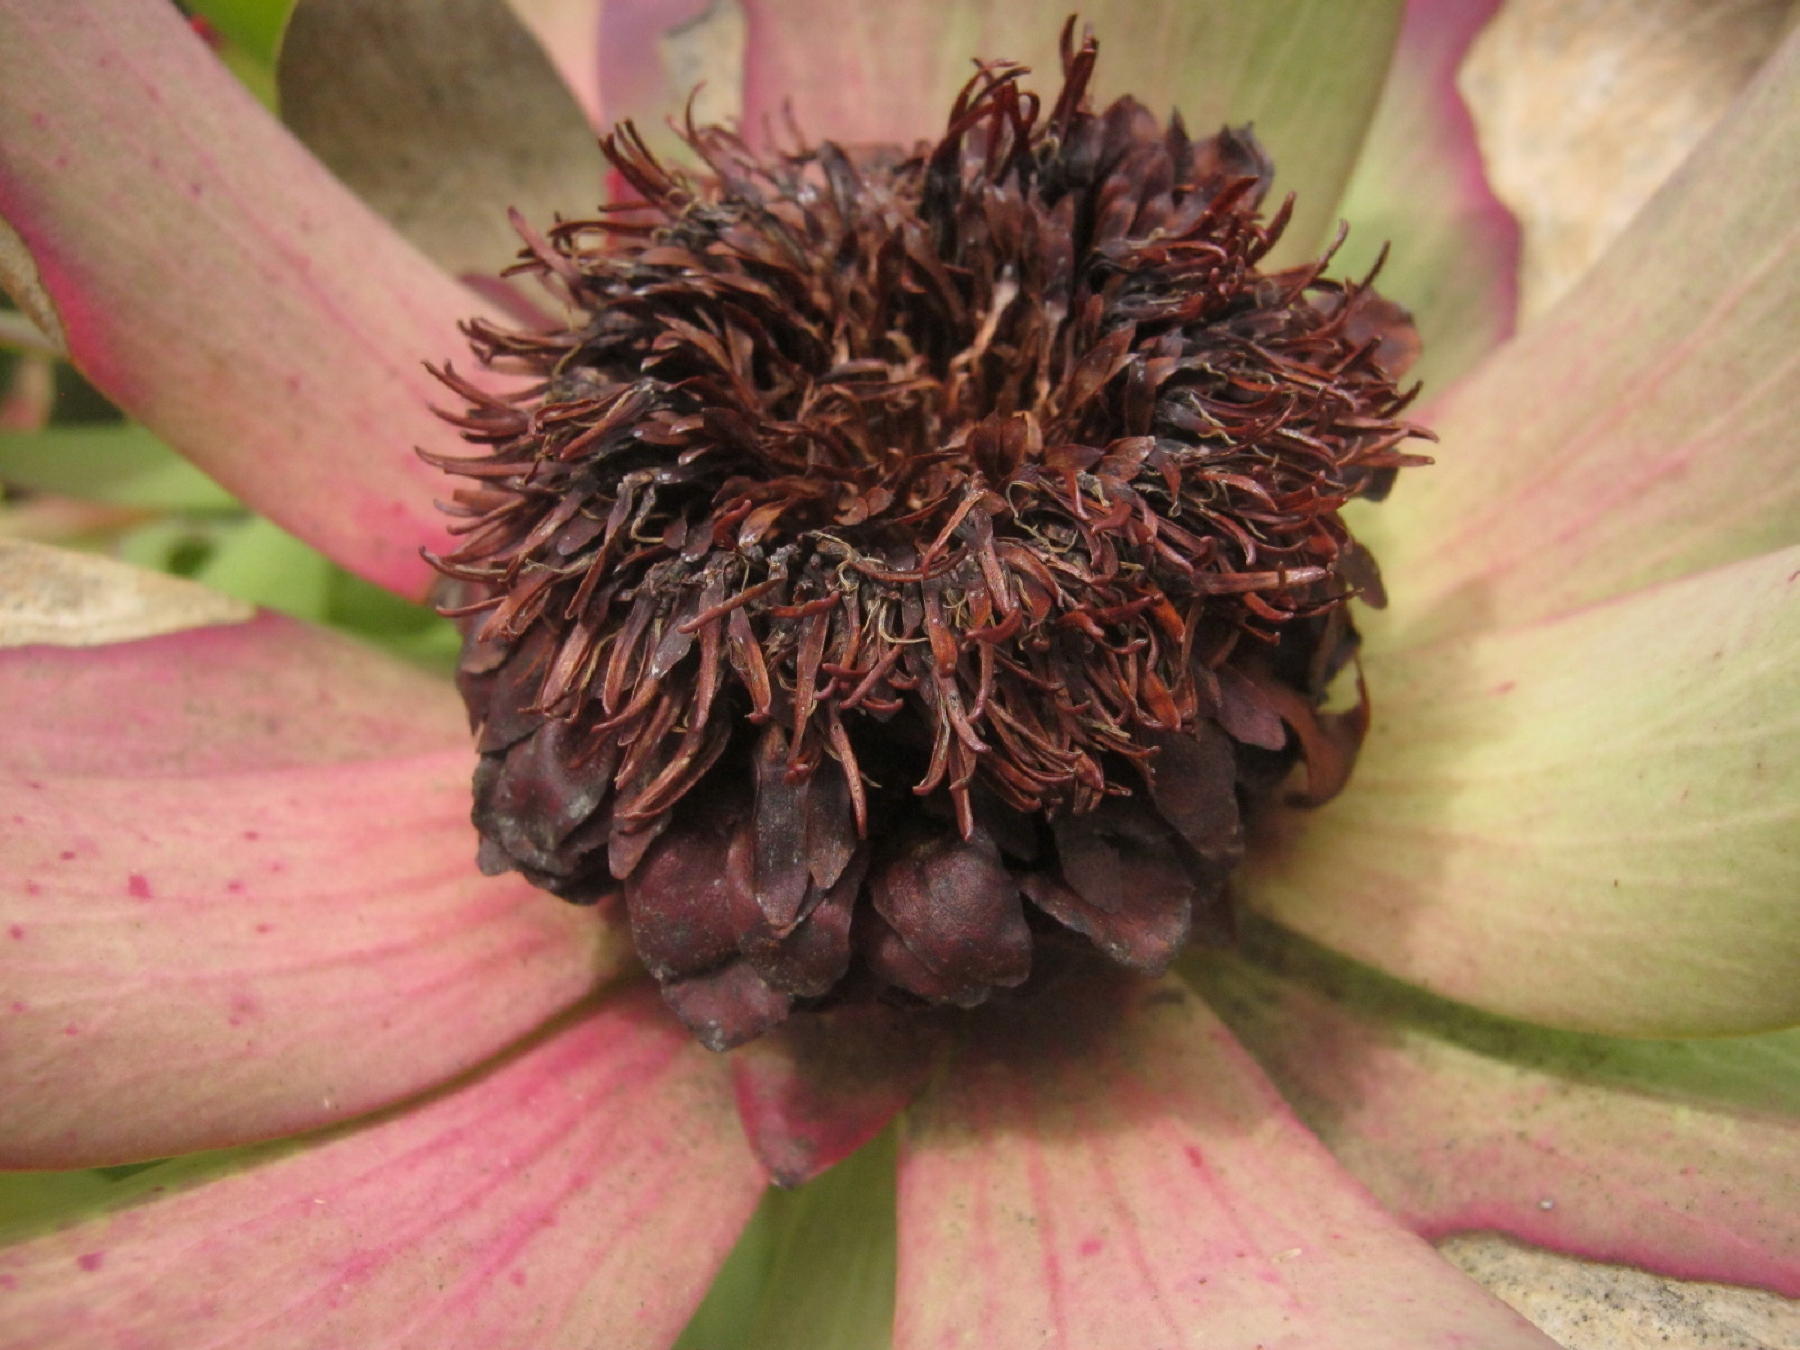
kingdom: Plantae
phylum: Tracheophyta
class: Magnoliopsida
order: Proteales
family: Proteaceae
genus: Leucadendron
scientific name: Leucadendron tinctum
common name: Spicy conebush
